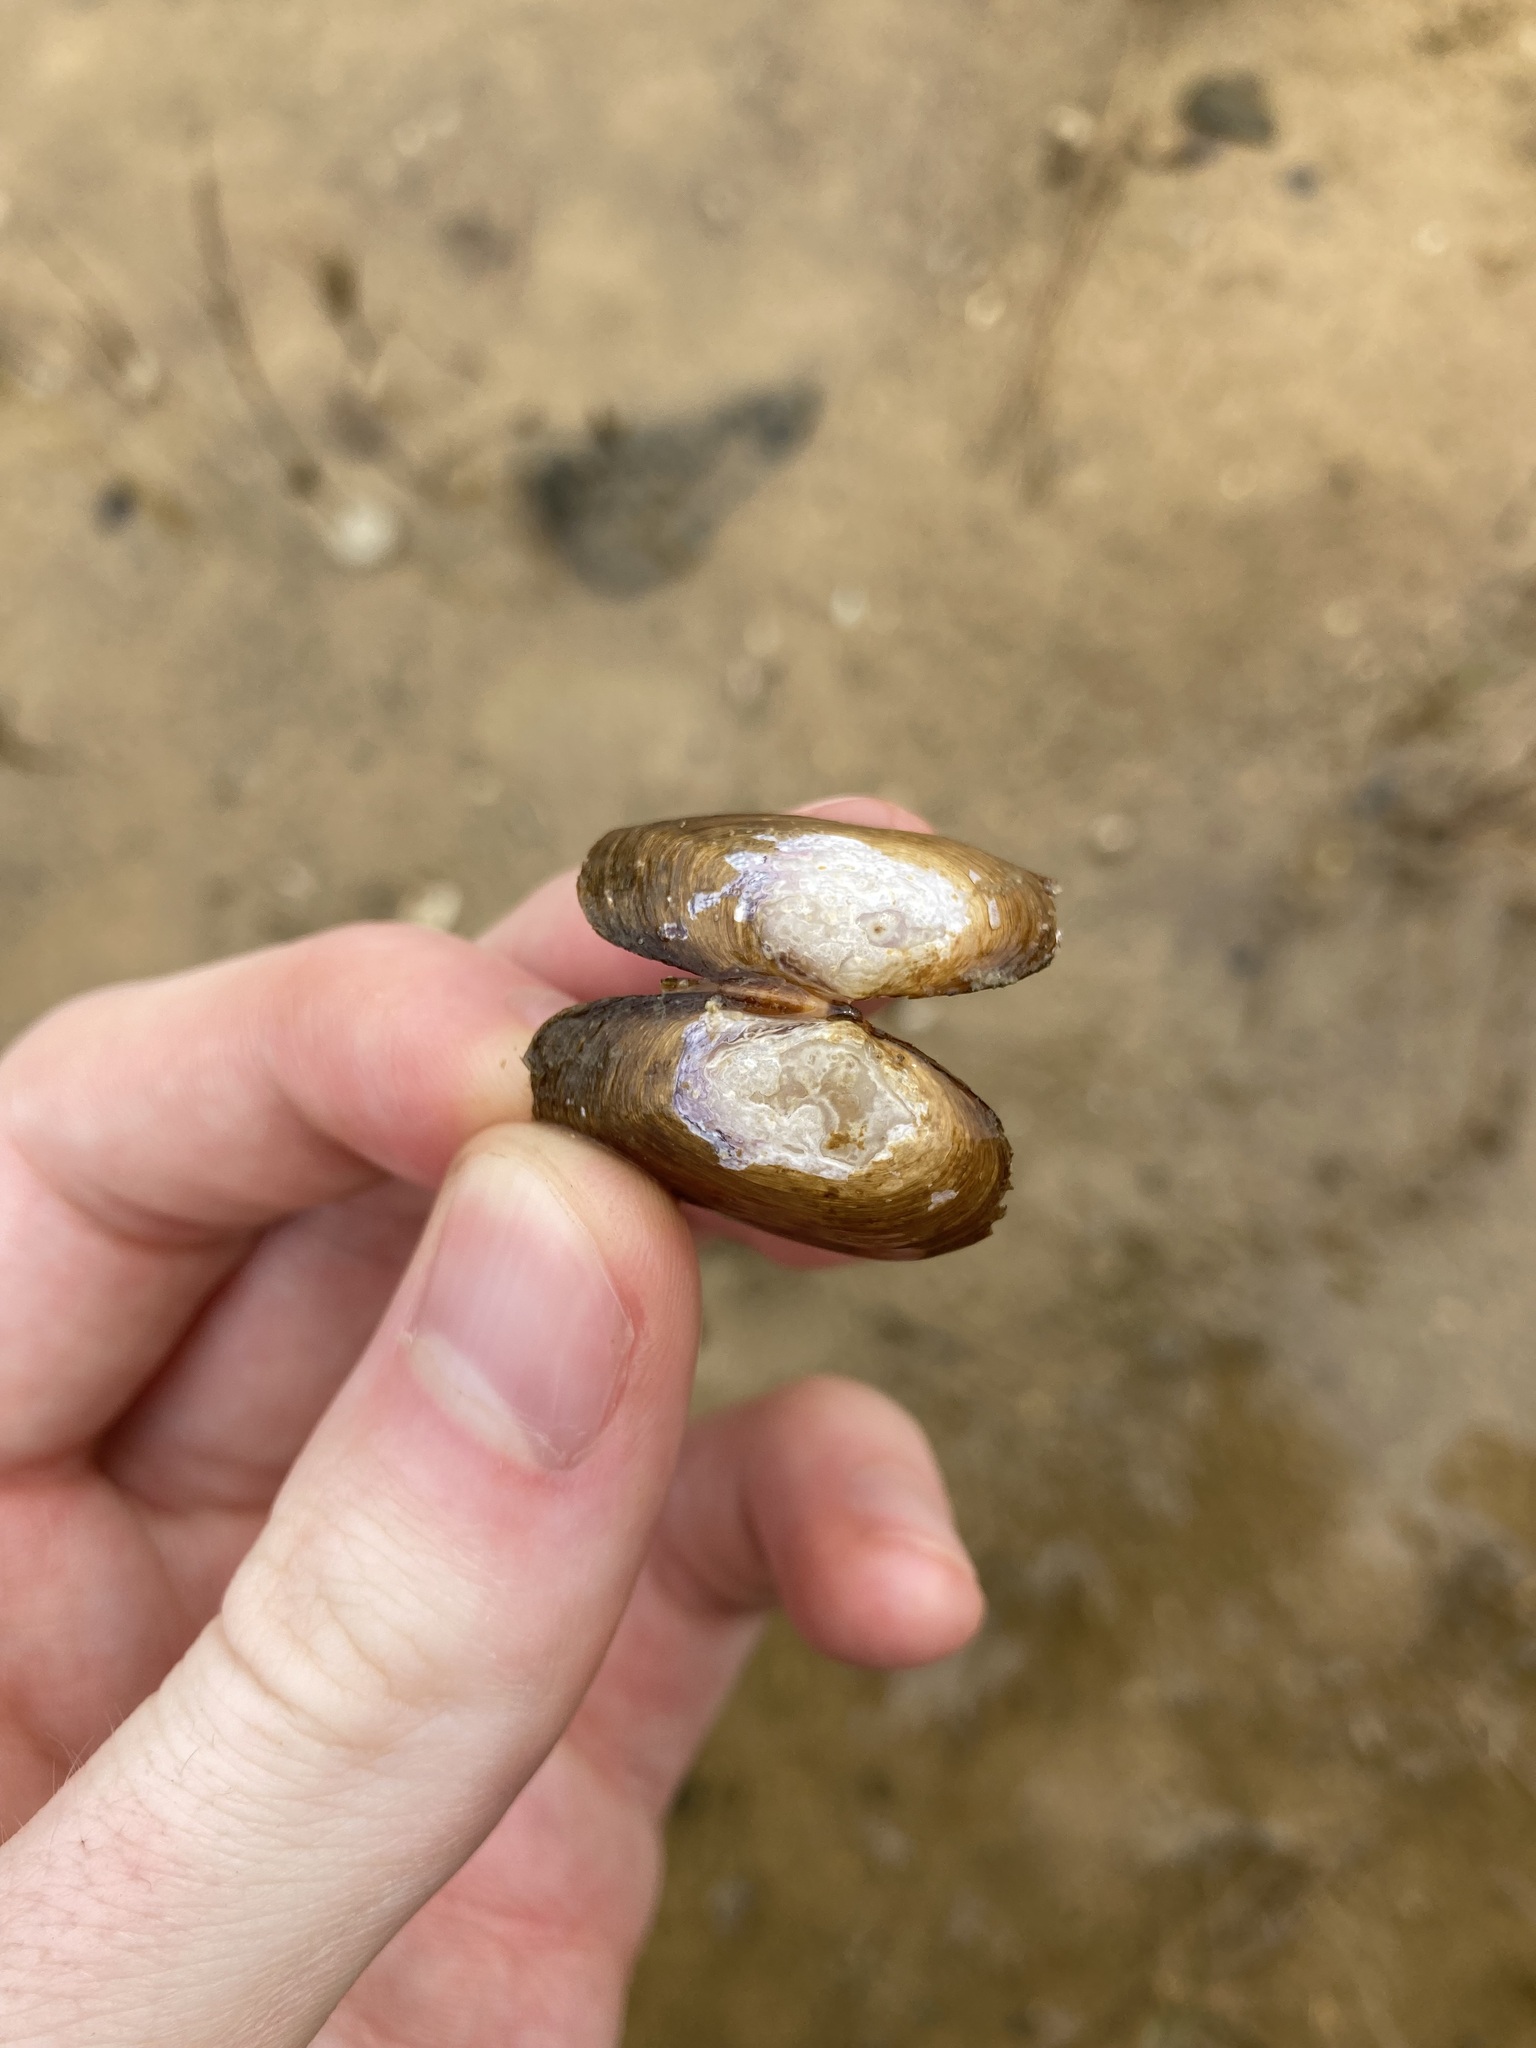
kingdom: Animalia
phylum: Mollusca
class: Bivalvia
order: Venerida
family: Glauconomidae
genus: Glauconome
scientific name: Glauconome radiata
